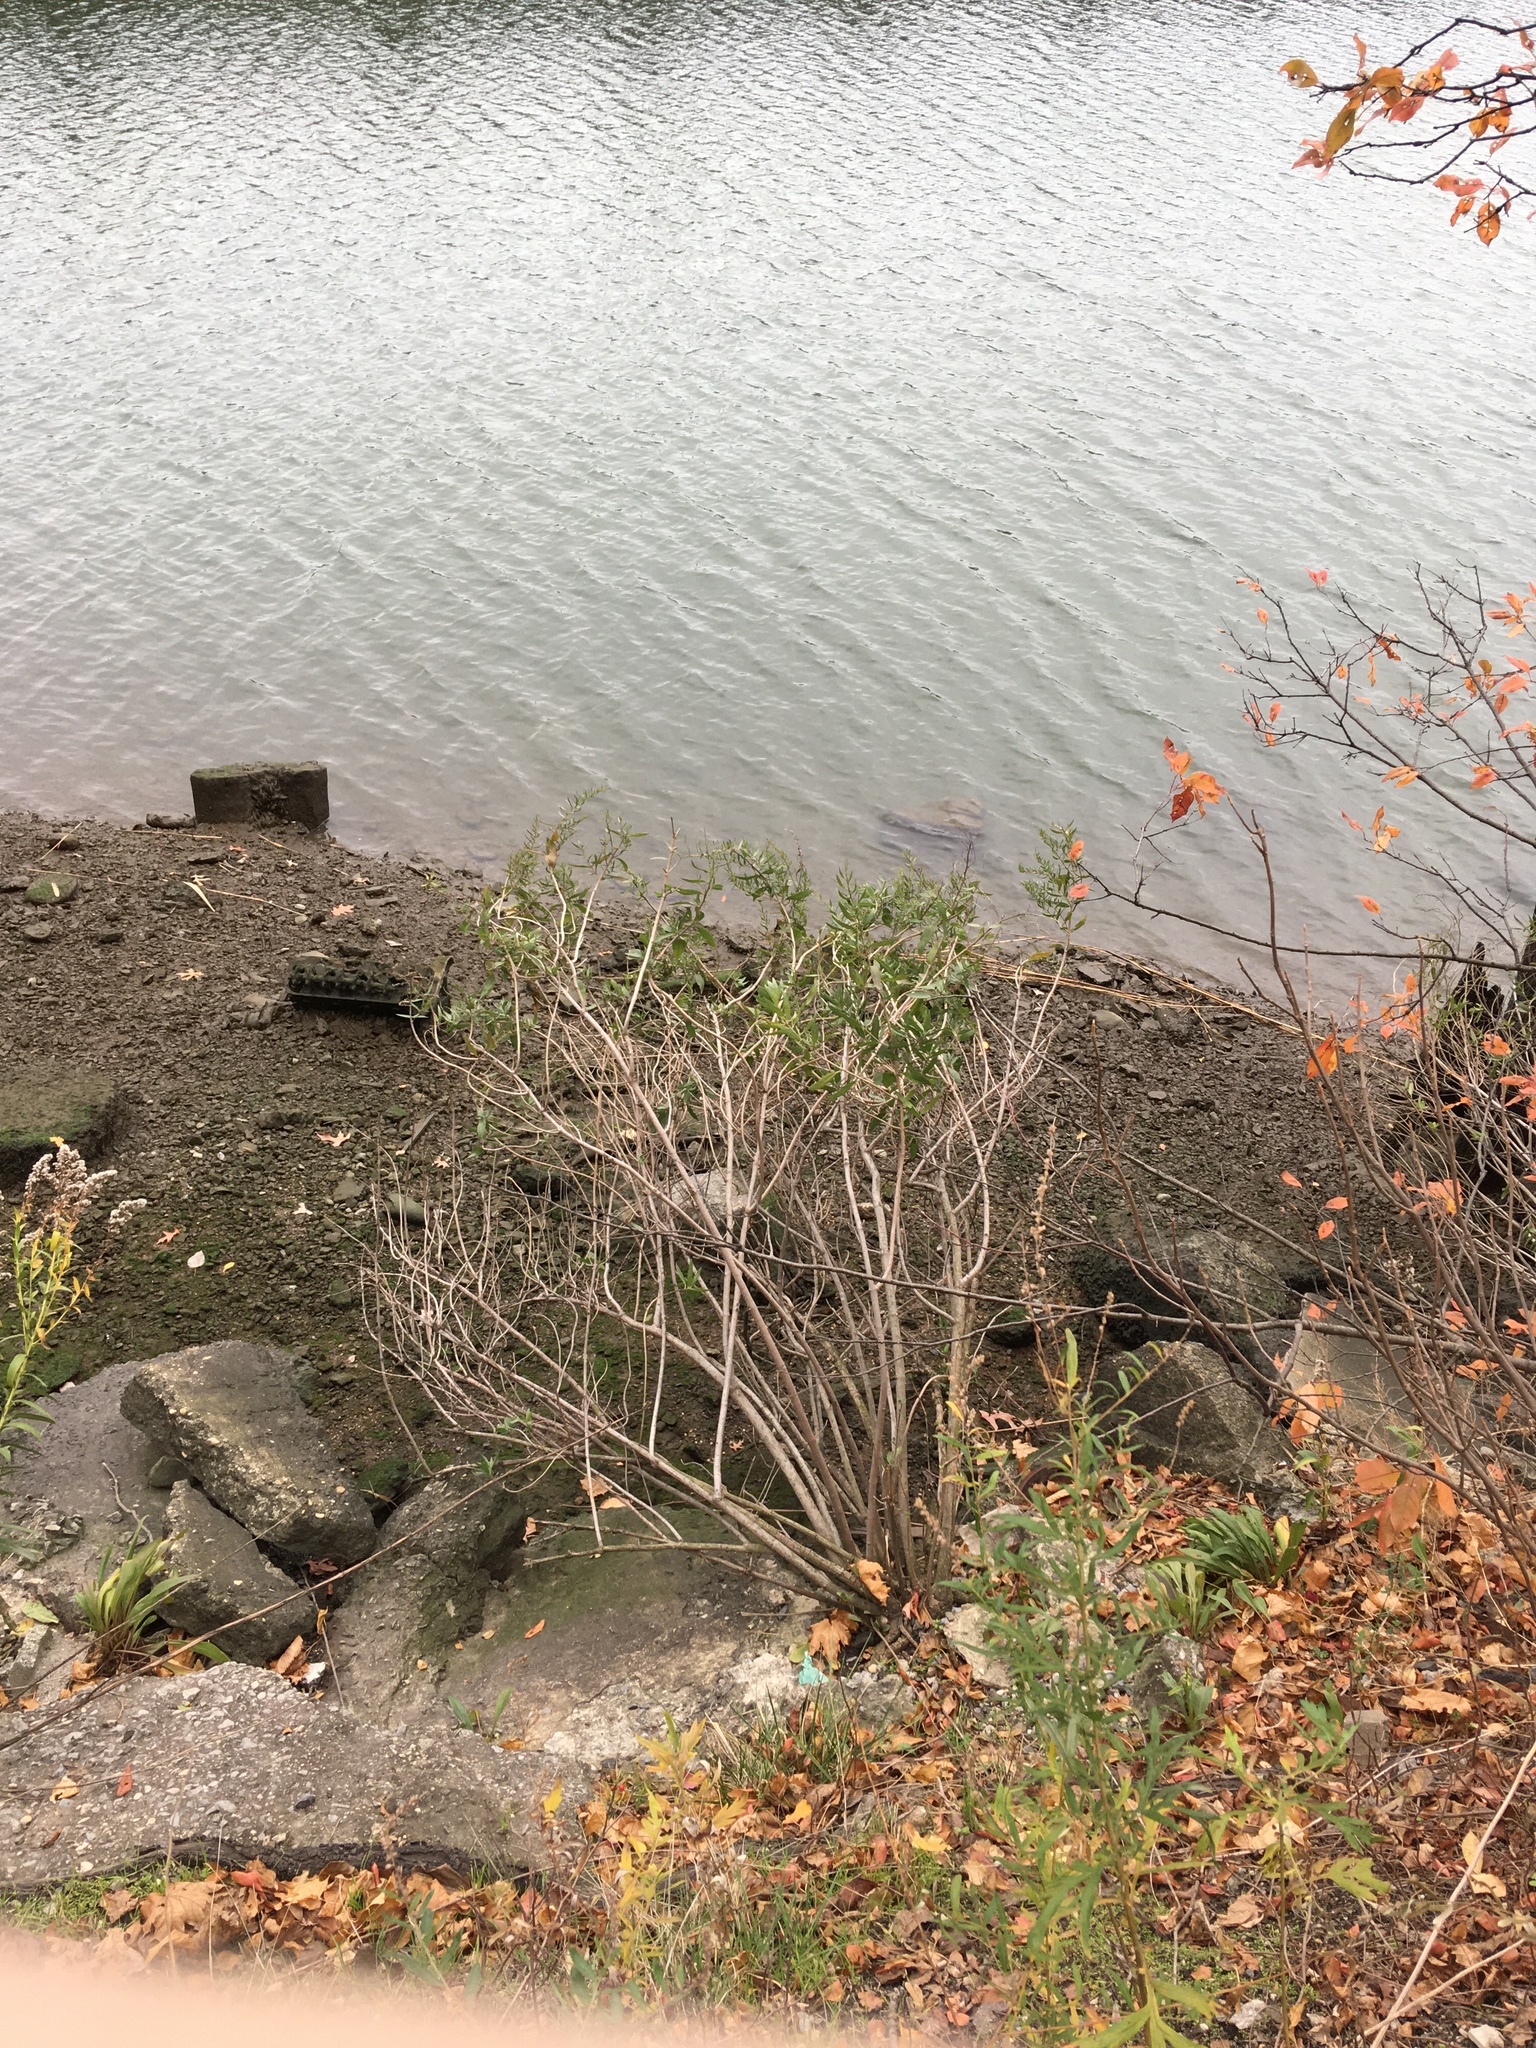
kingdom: Plantae
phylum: Tracheophyta
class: Magnoliopsida
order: Asterales
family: Asteraceae
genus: Iva
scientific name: Iva frutescens
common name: Big-leaved marsh-elder
